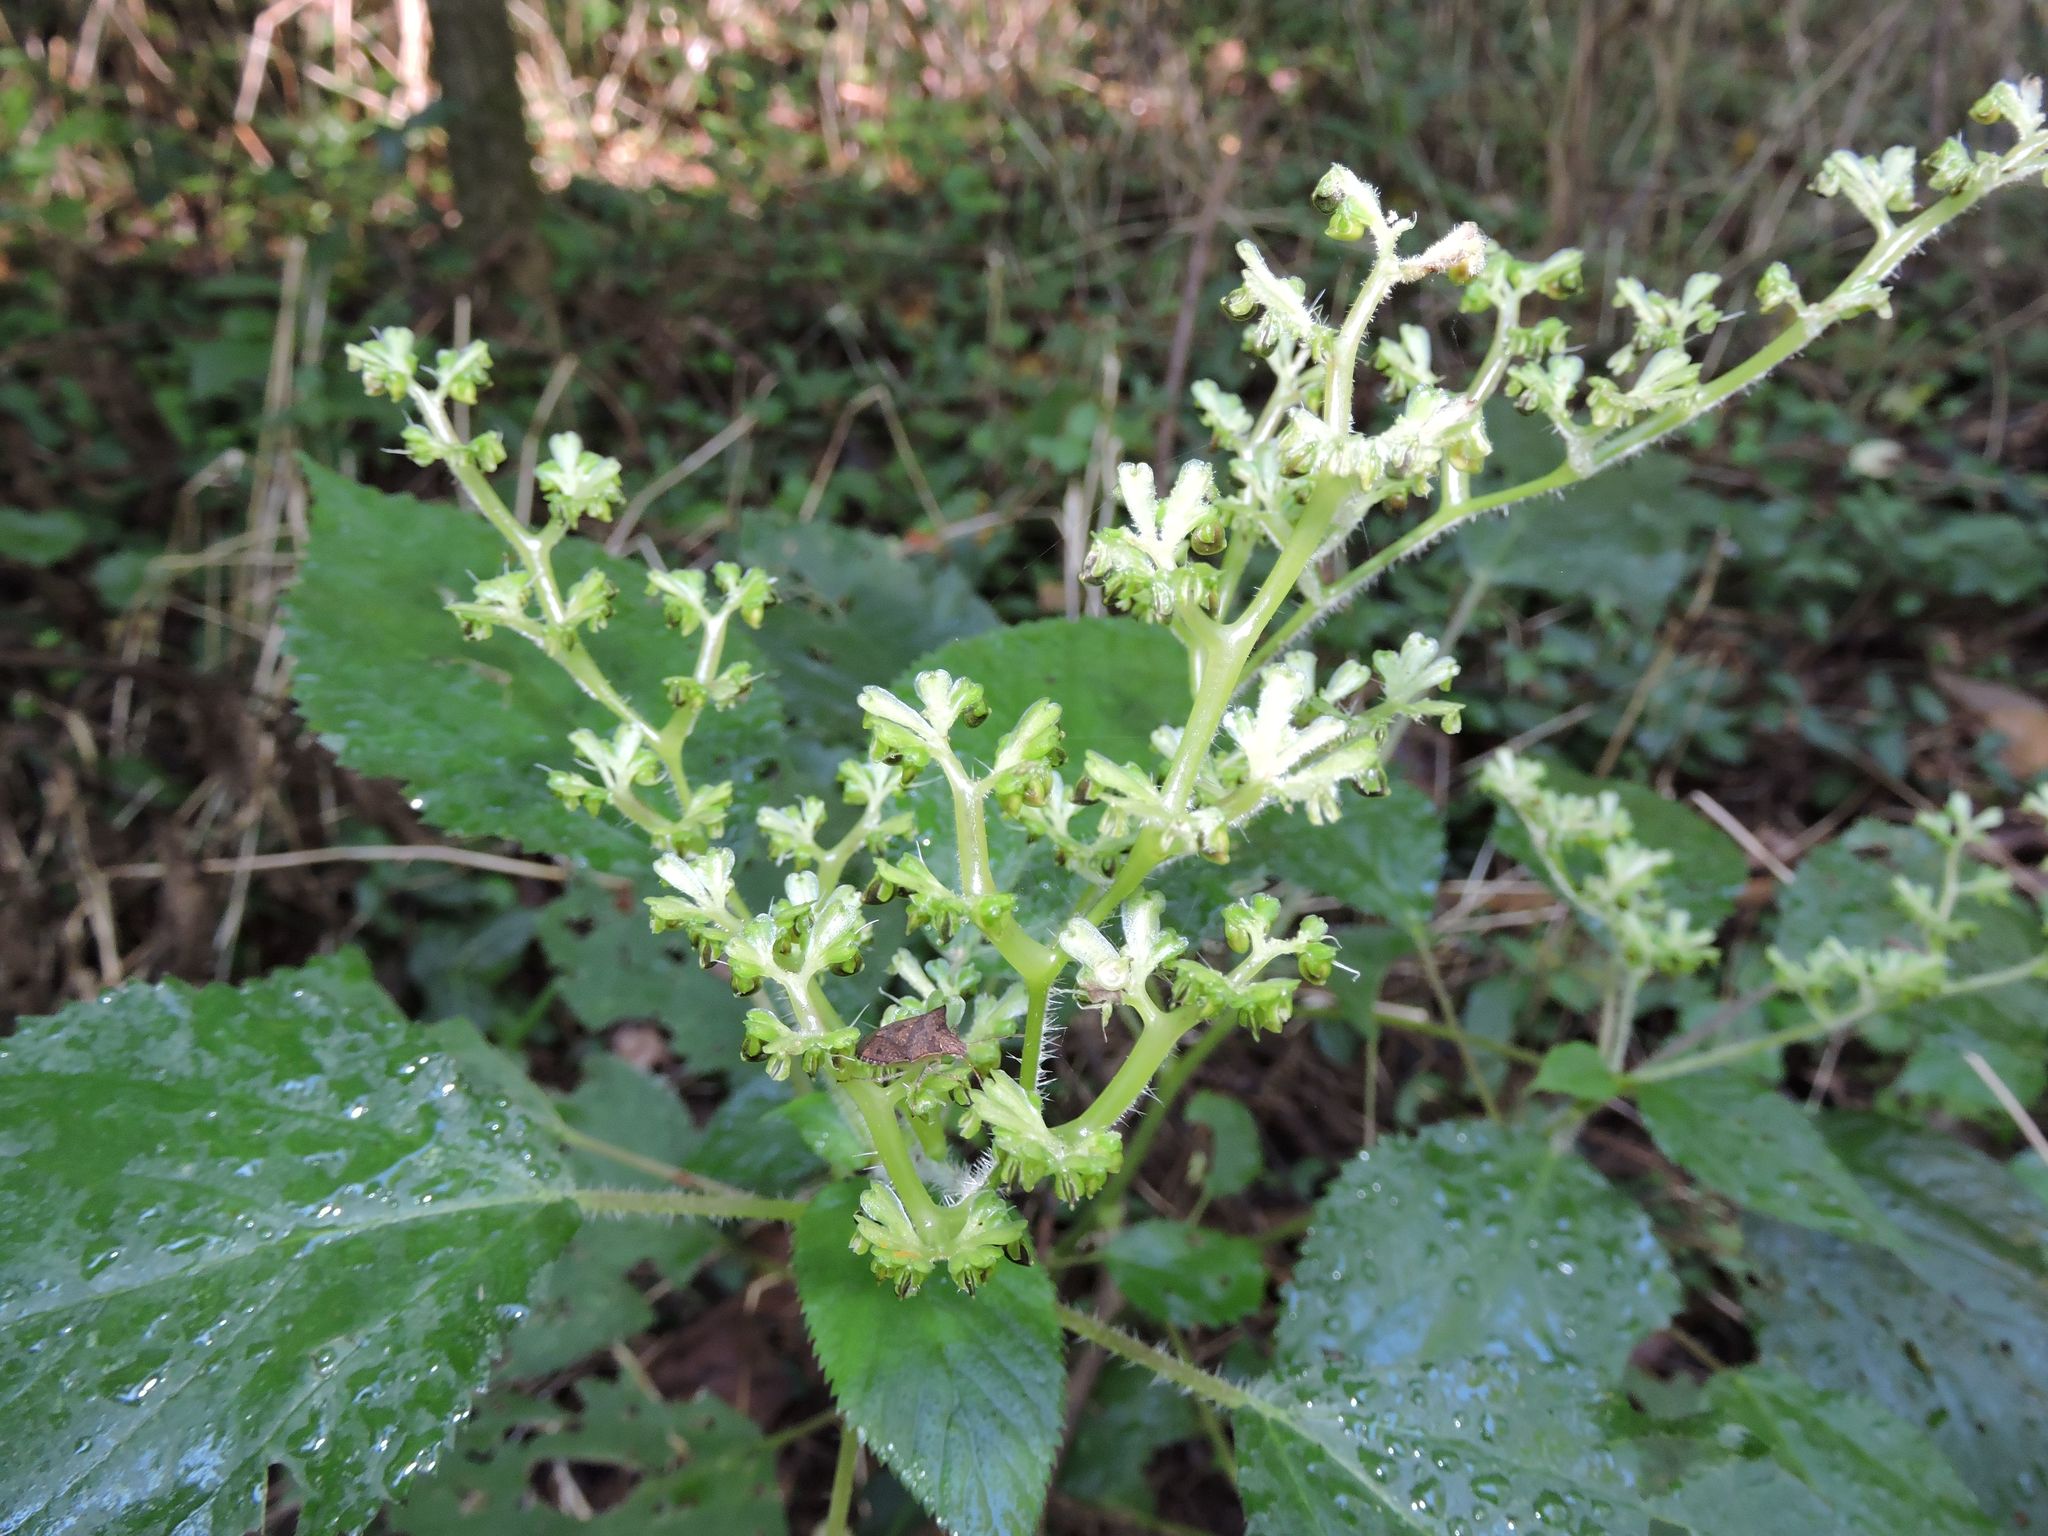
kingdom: Plantae
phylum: Tracheophyta
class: Magnoliopsida
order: Rosales
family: Urticaceae
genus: Laportea
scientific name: Laportea canadensis
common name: Canada nettle
